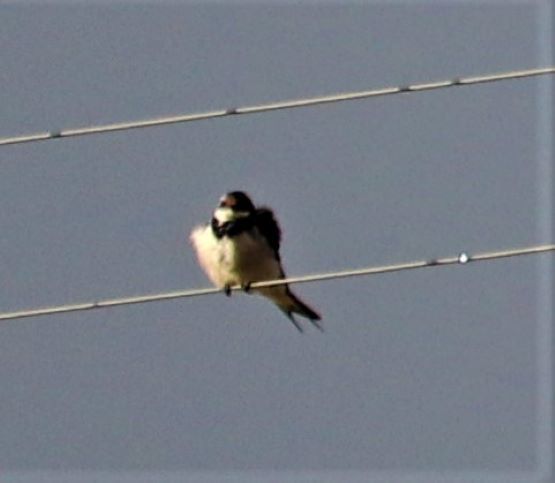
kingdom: Animalia
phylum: Chordata
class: Aves
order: Passeriformes
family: Hirundinidae
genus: Hirundo
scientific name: Hirundo albigularis
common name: White-throated swallow
